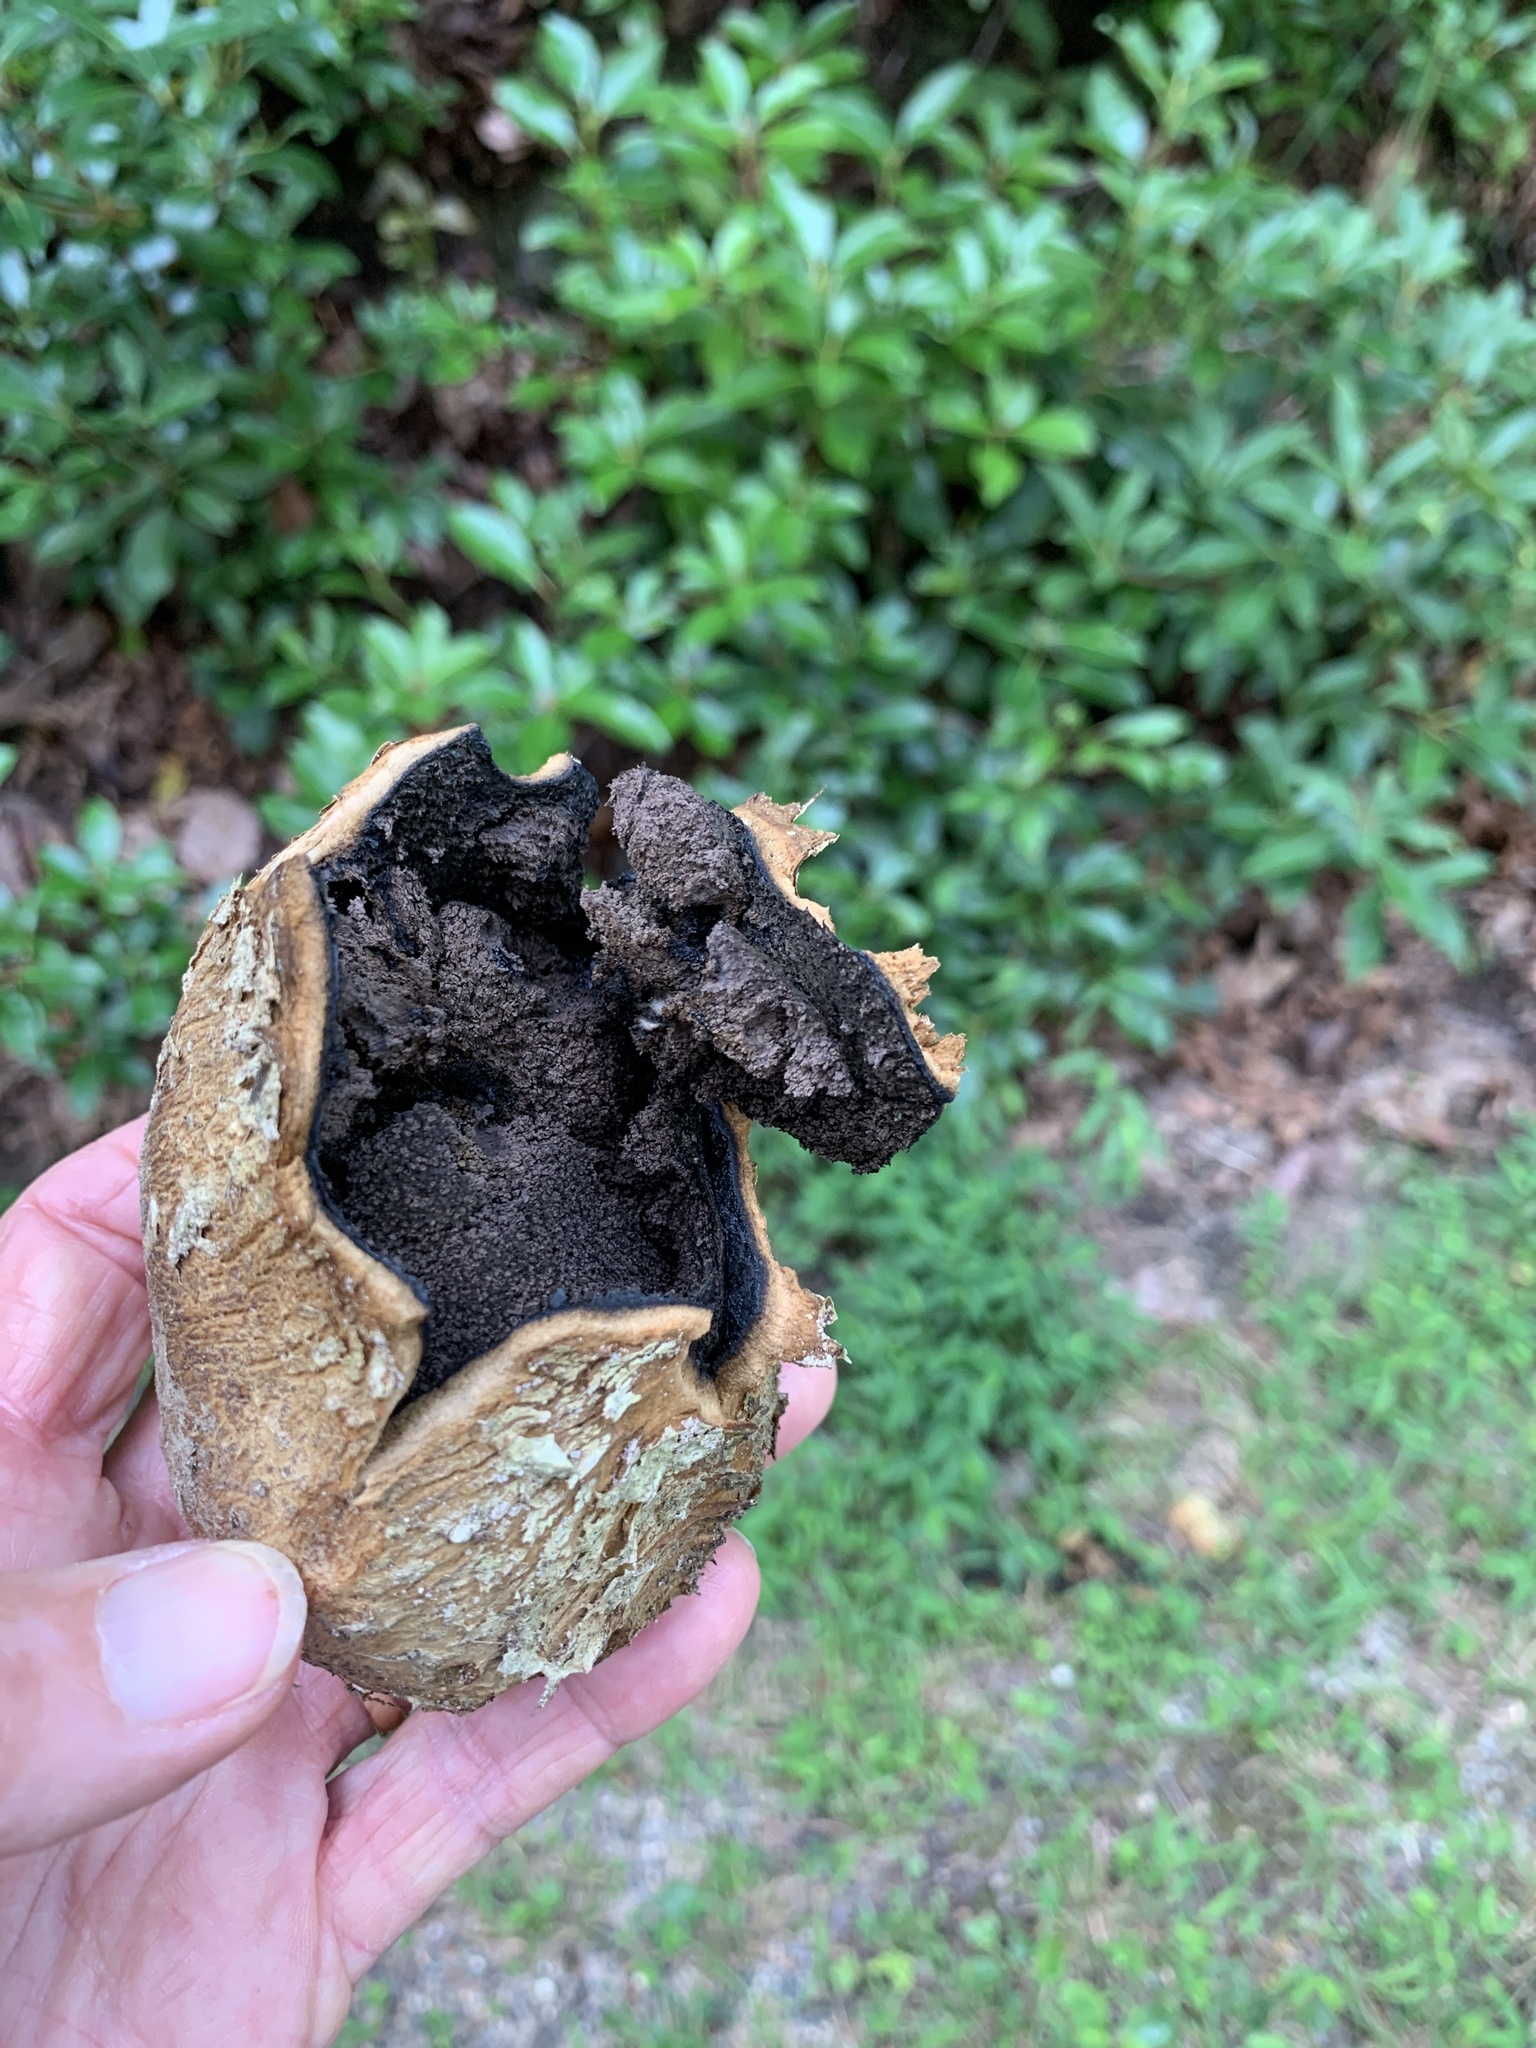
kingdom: Fungi
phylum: Basidiomycota
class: Agaricomycetes
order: Boletales
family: Sclerodermataceae
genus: Scleroderma
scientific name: Scleroderma polyrhizum
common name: Many-rooted earthball
